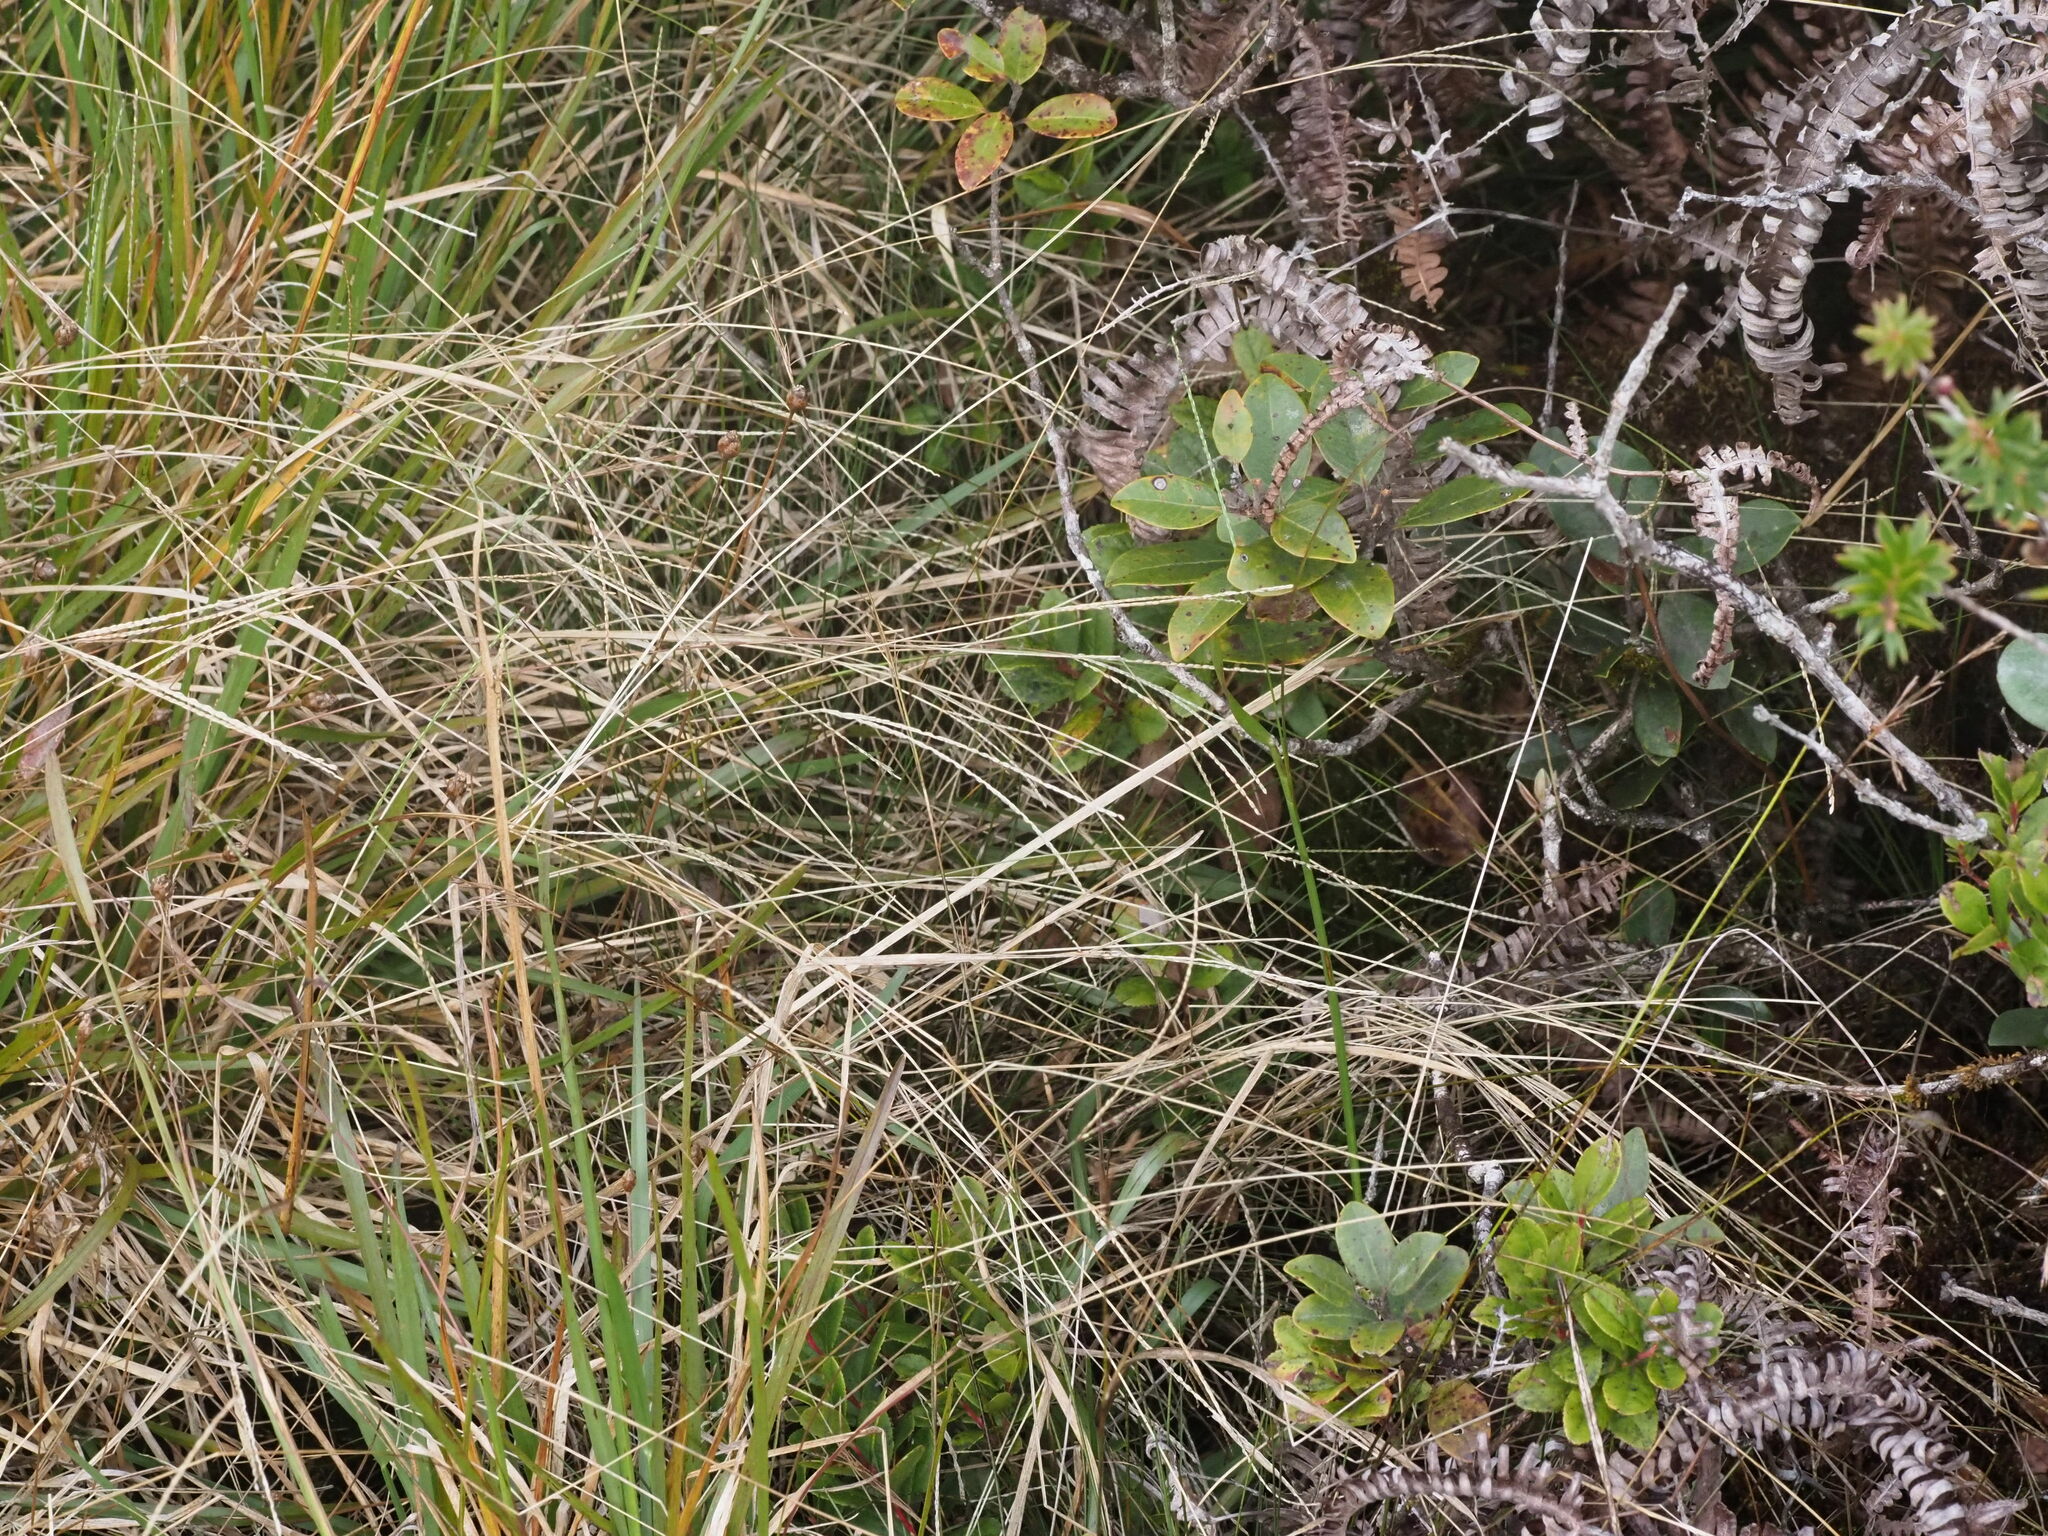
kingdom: Plantae
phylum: Tracheophyta
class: Liliopsida
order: Poales
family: Poaceae
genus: Axonopus
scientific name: Axonopus fissifolius
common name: Common carpetgrass
